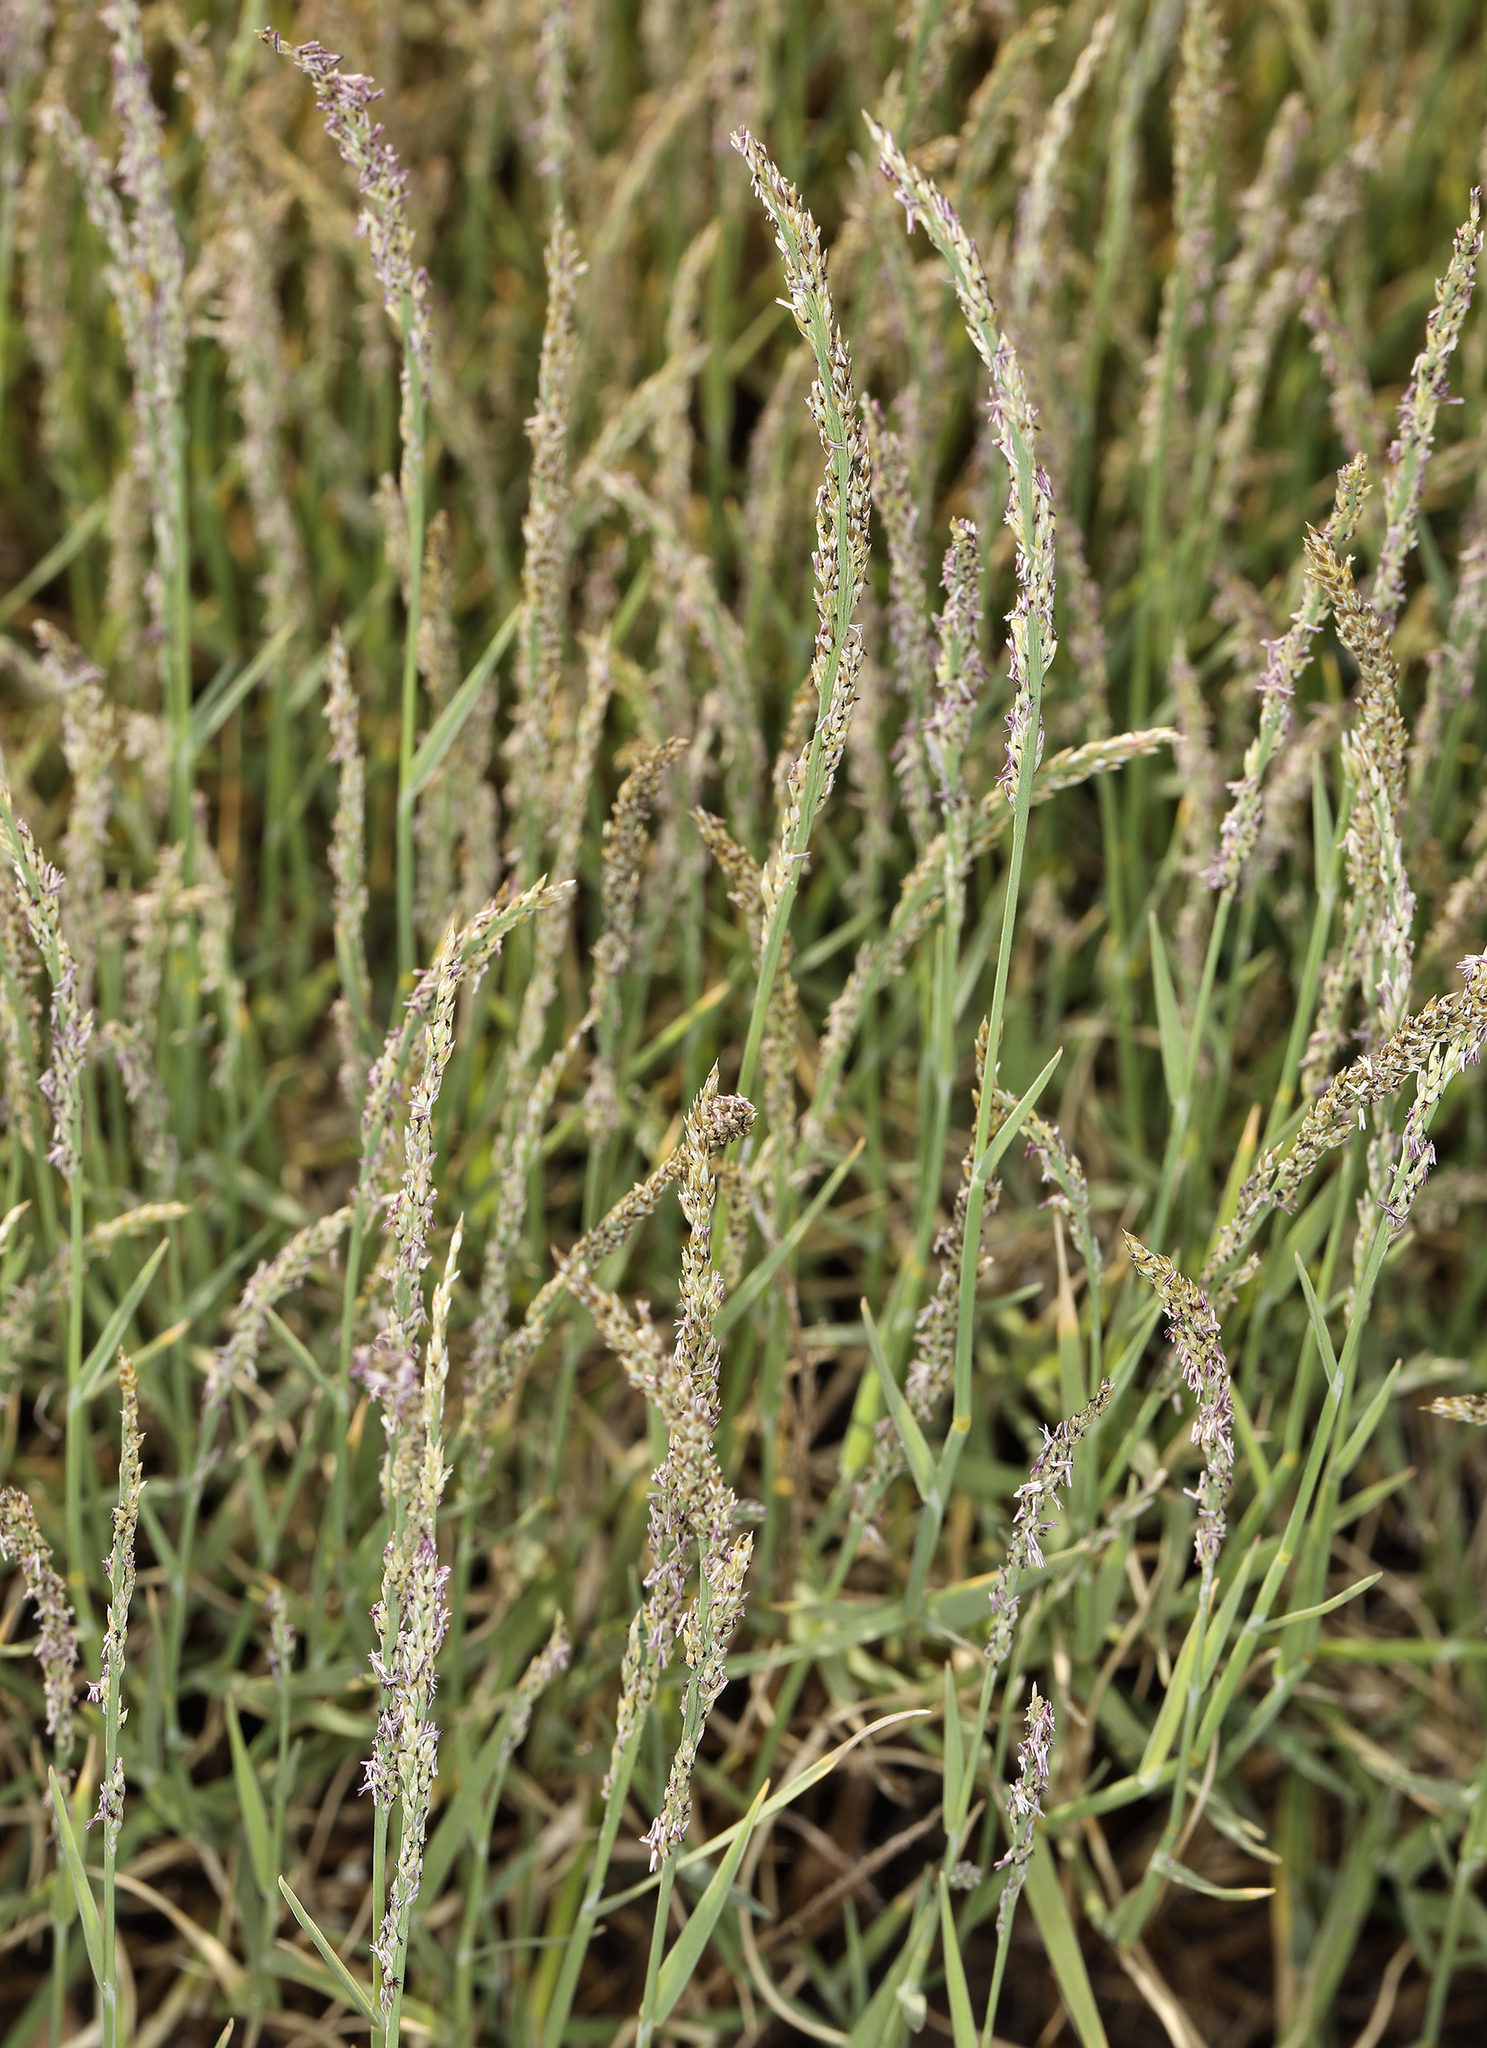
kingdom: Plantae
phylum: Tracheophyta
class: Liliopsida
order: Poales
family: Poaceae
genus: Muhlenbergia
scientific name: Muhlenbergia richardsonis
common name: Mat muhly
